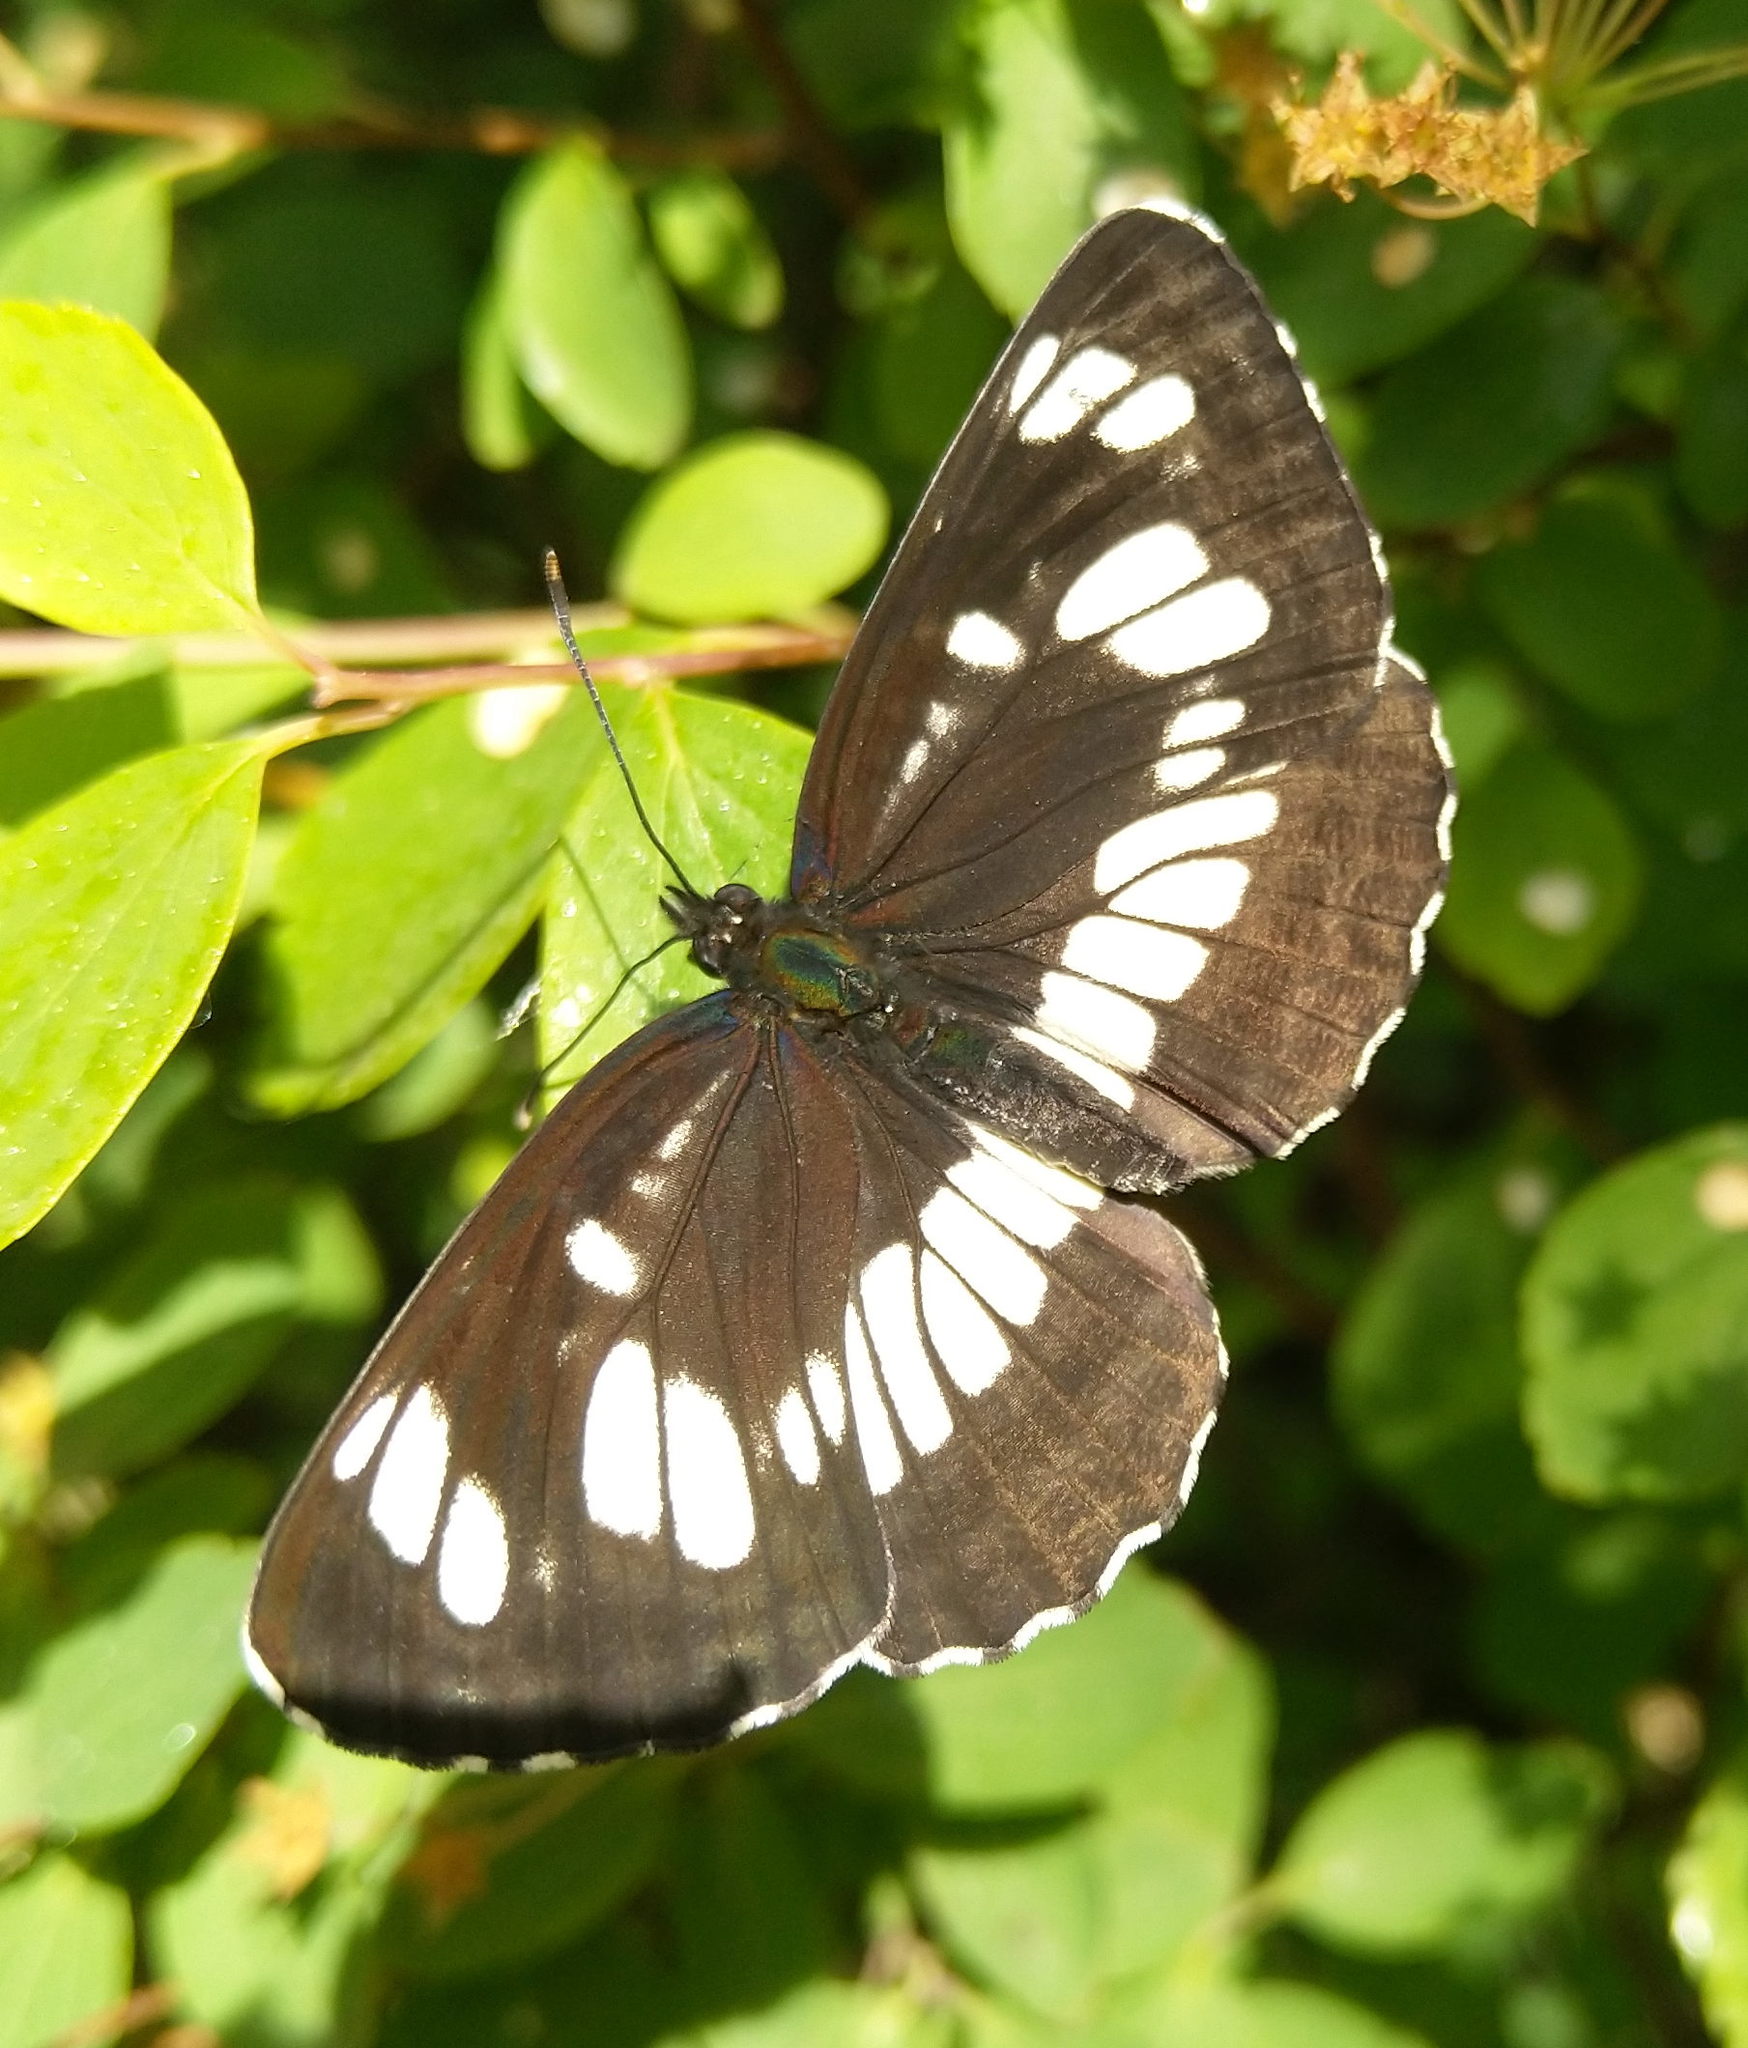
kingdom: Animalia
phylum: Arthropoda
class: Insecta
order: Lepidoptera
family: Nymphalidae
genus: Neptis
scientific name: Neptis rivularis
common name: Hungarian glider
